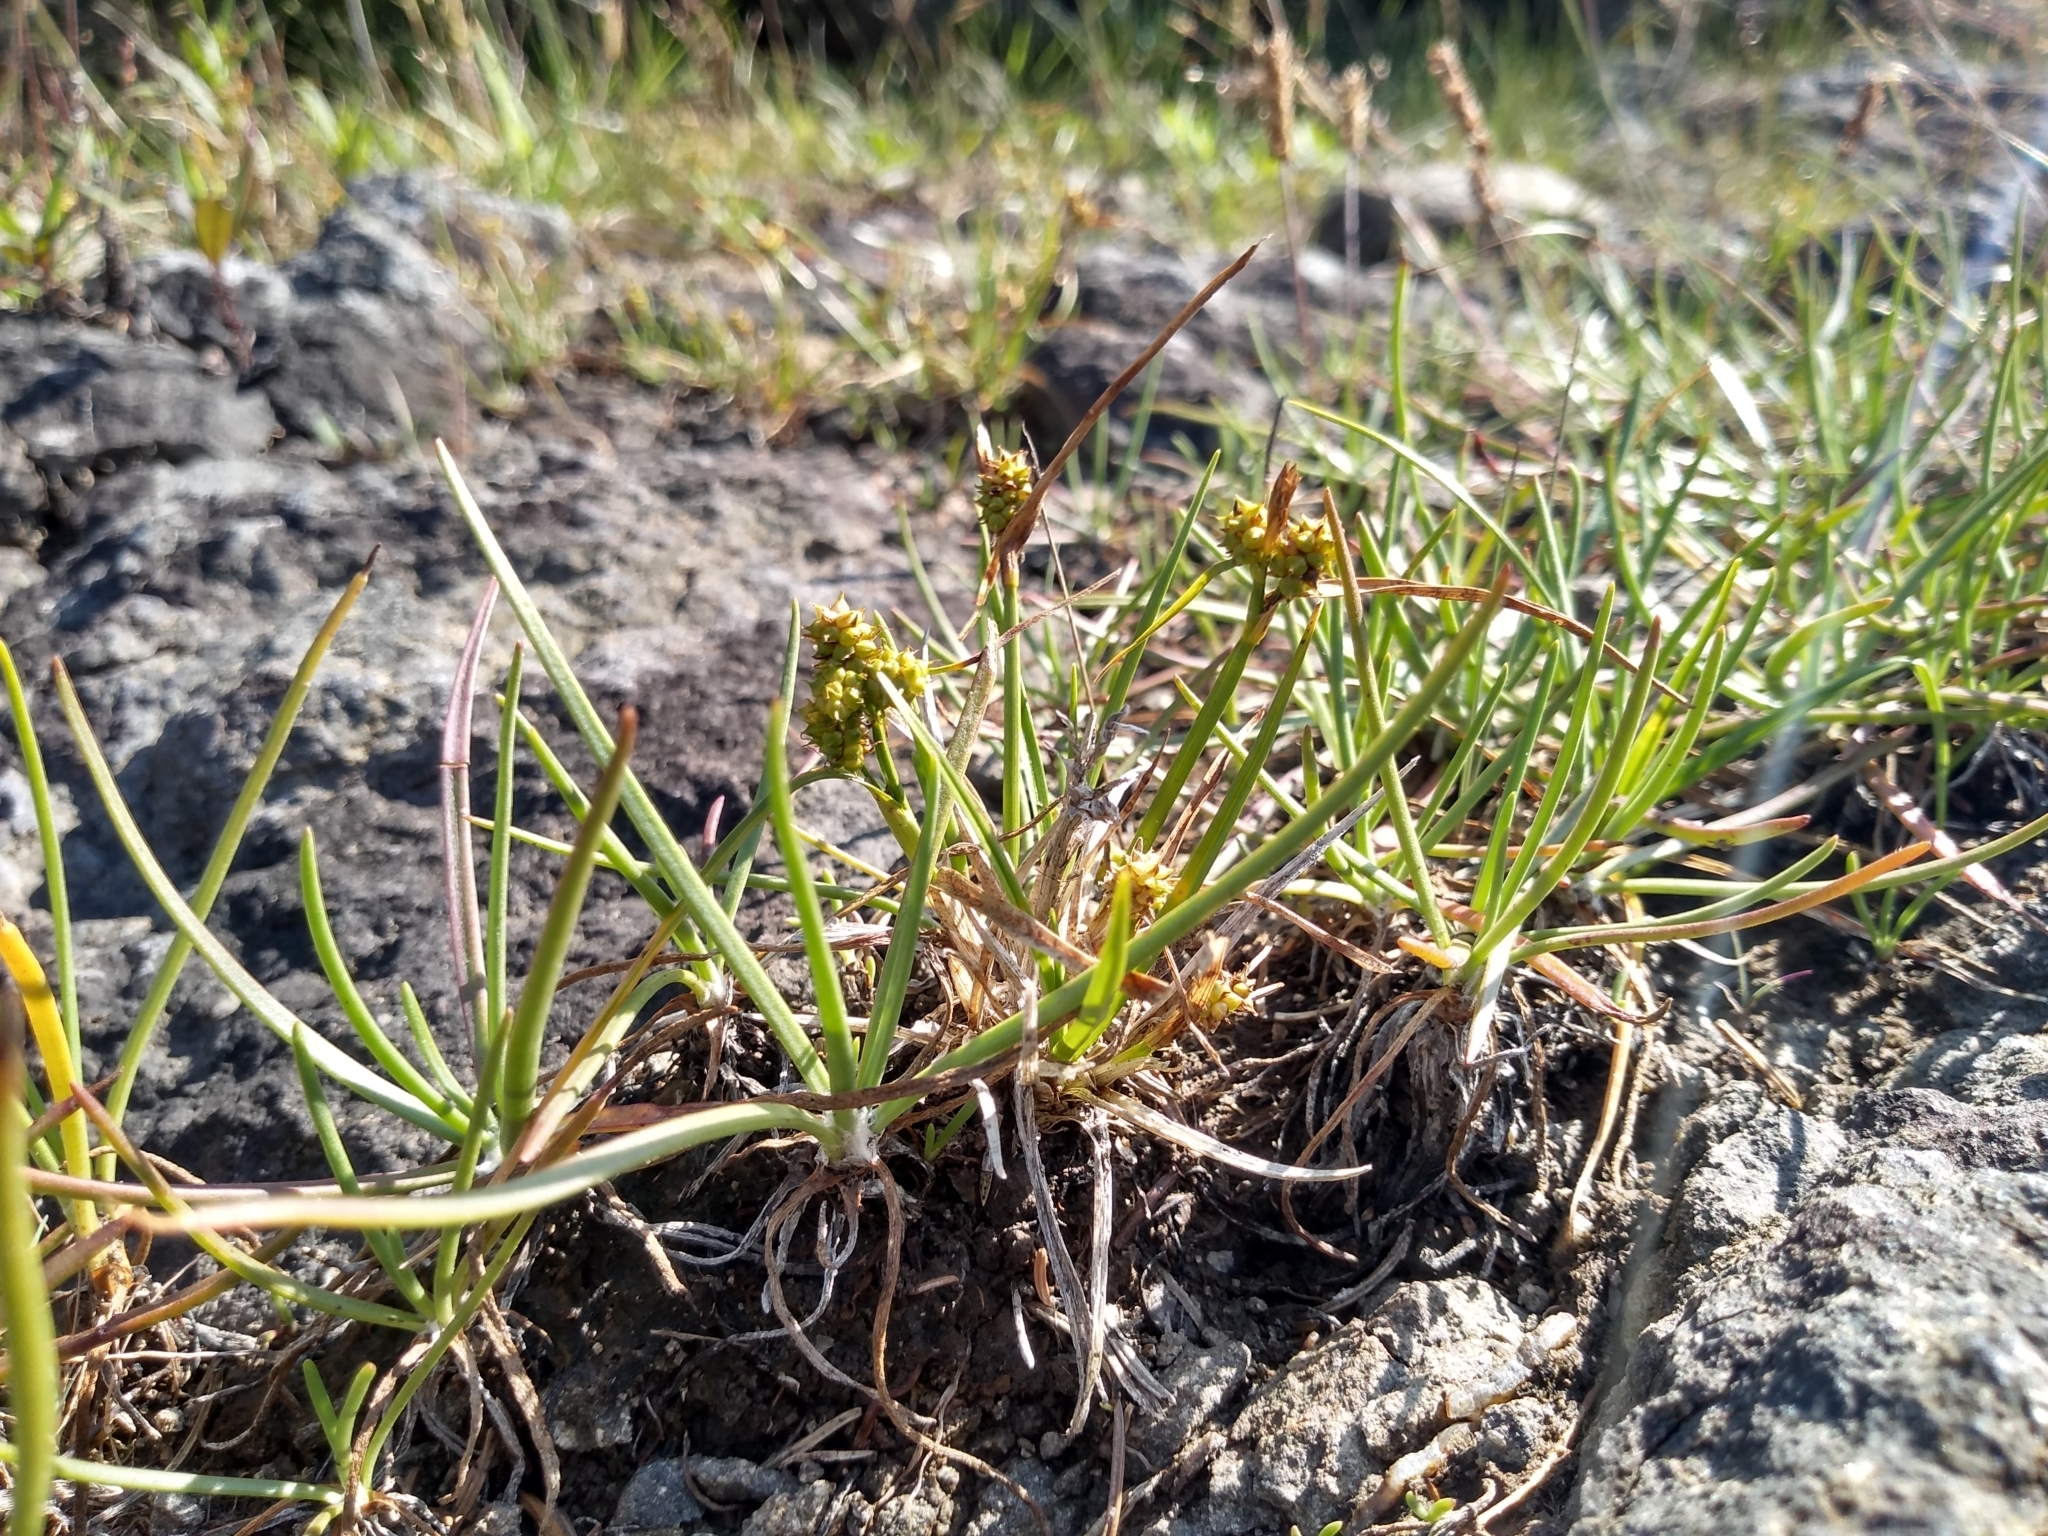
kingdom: Plantae
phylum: Tracheophyta
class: Liliopsida
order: Poales
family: Cyperaceae
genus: Carex
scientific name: Carex saxilittoralis
